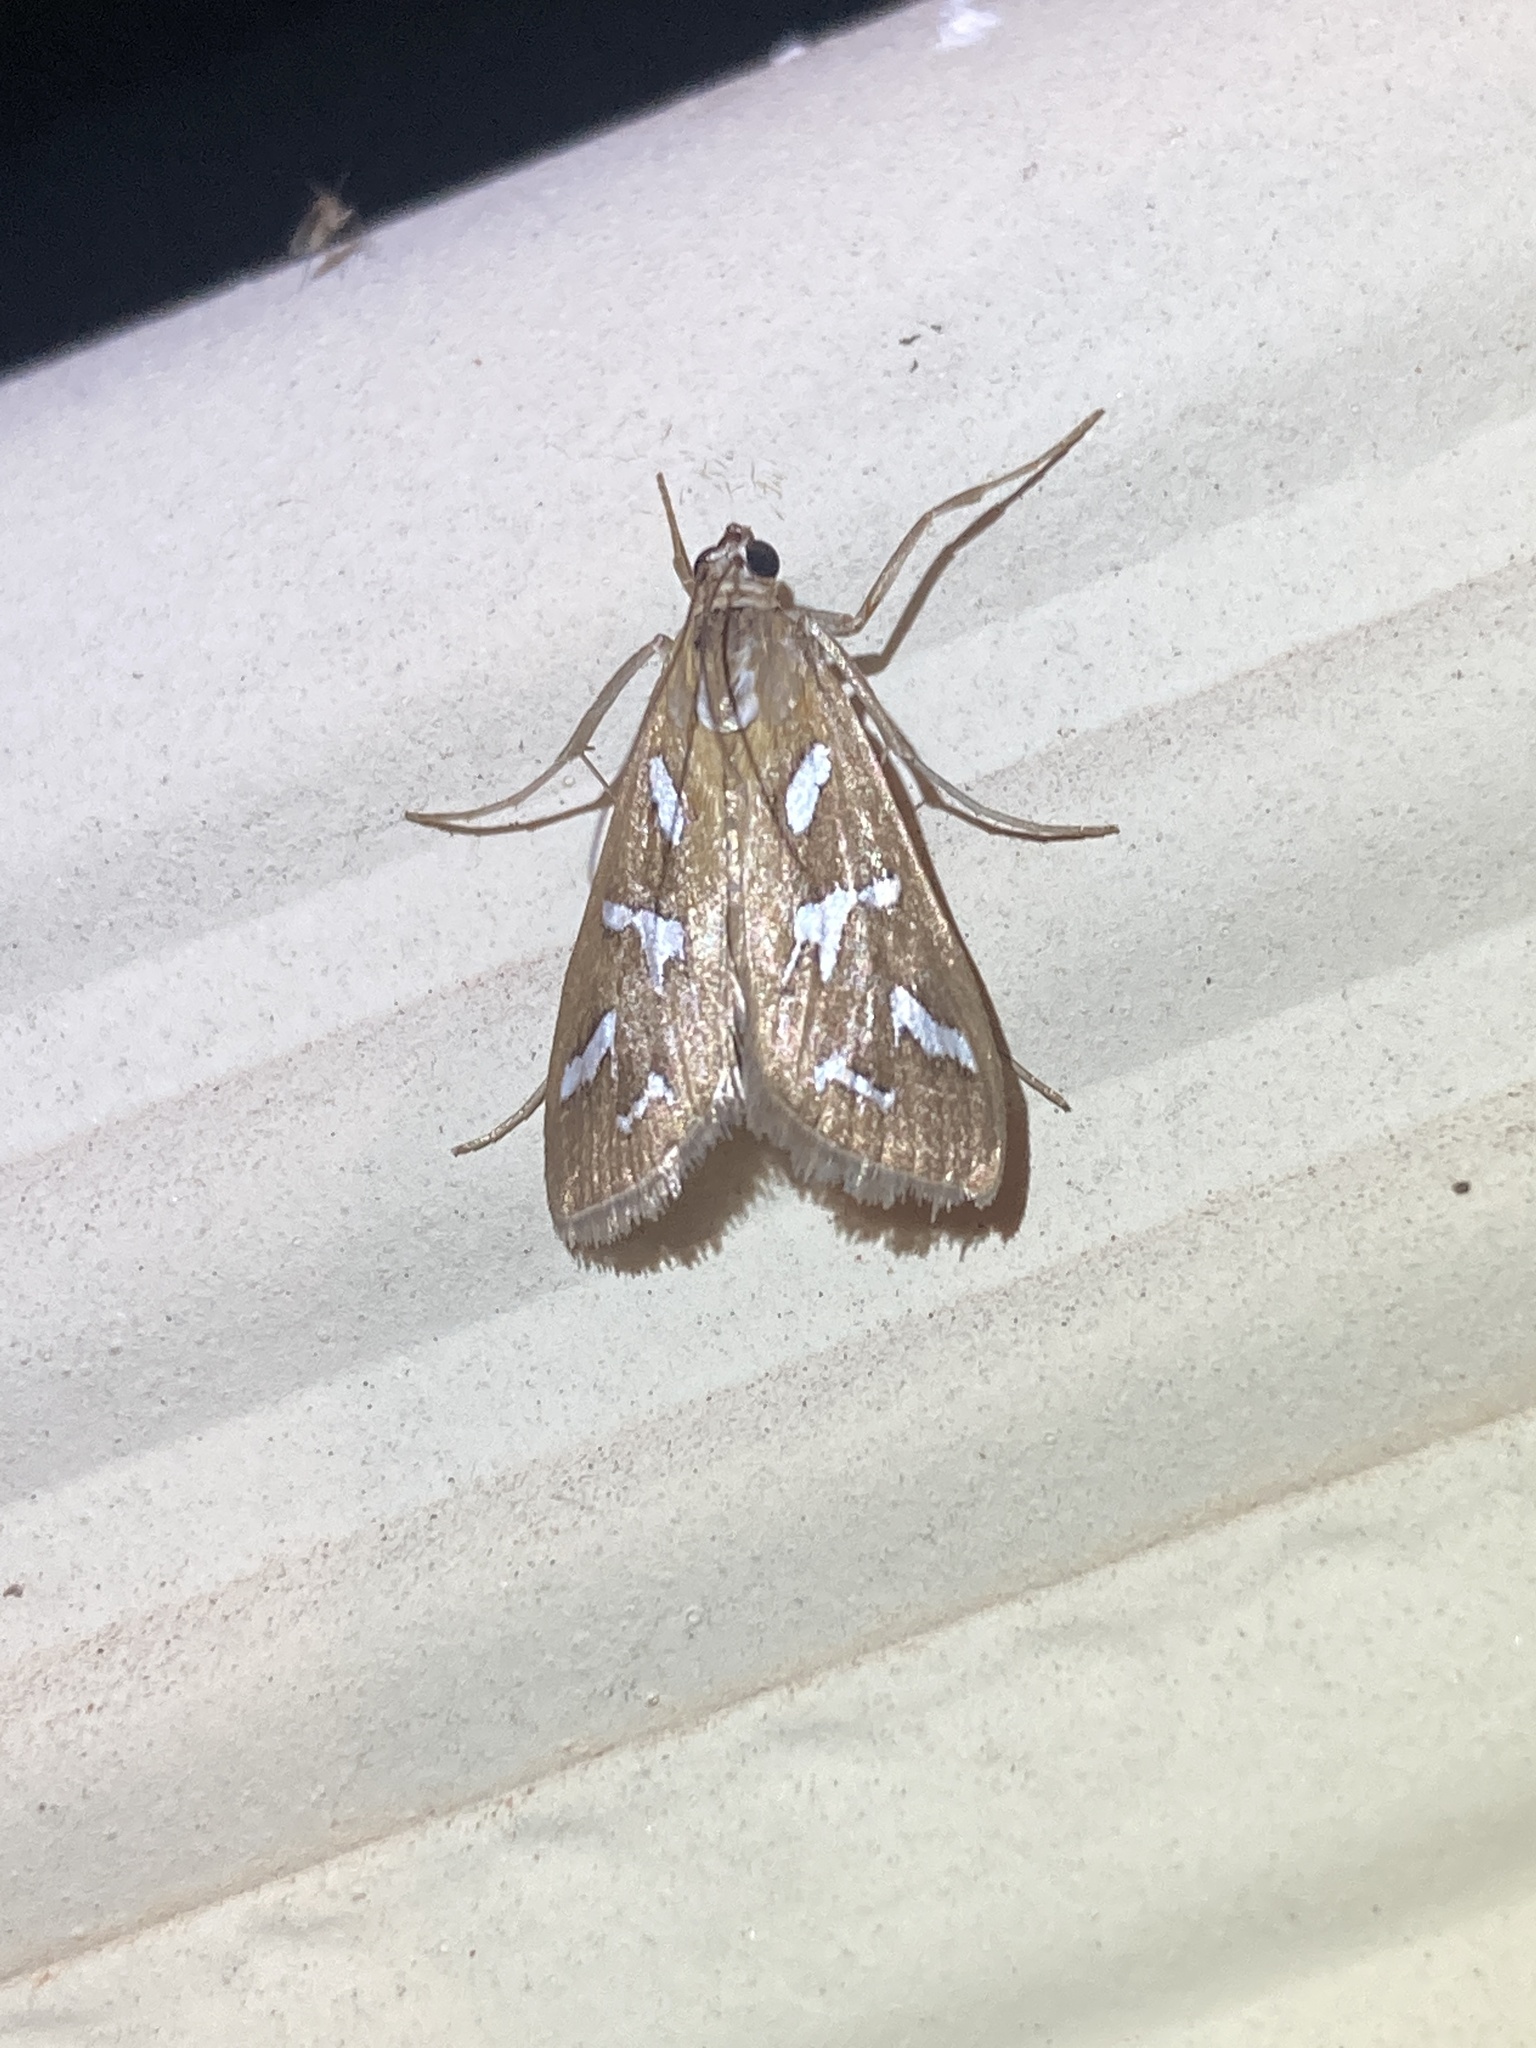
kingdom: Animalia
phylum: Arthropoda
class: Insecta
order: Lepidoptera
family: Crambidae
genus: Diastictis
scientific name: Diastictis fracturalis
